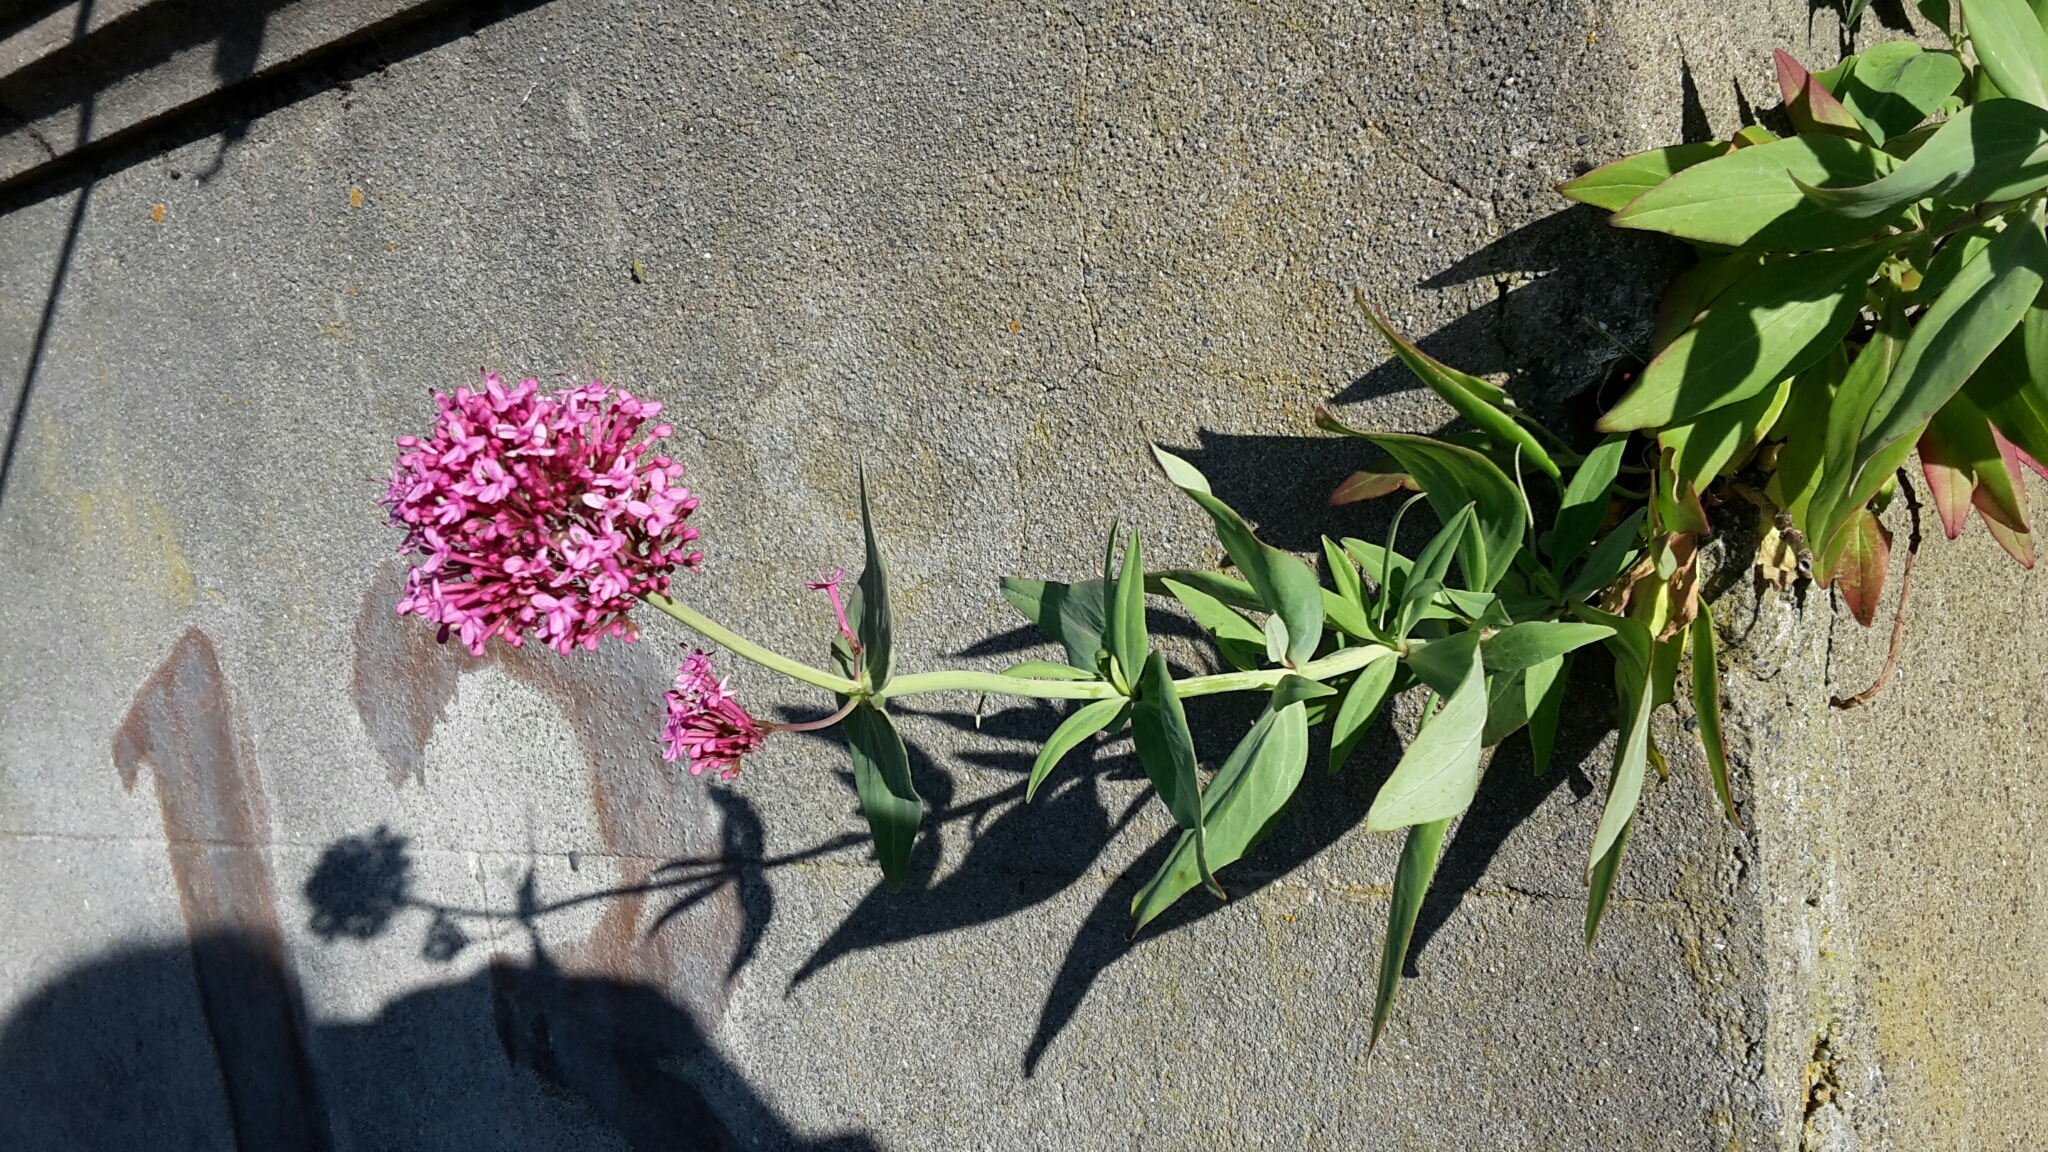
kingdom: Plantae
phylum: Tracheophyta
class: Magnoliopsida
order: Dipsacales
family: Caprifoliaceae
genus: Centranthus
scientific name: Centranthus ruber
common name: Red valerian
